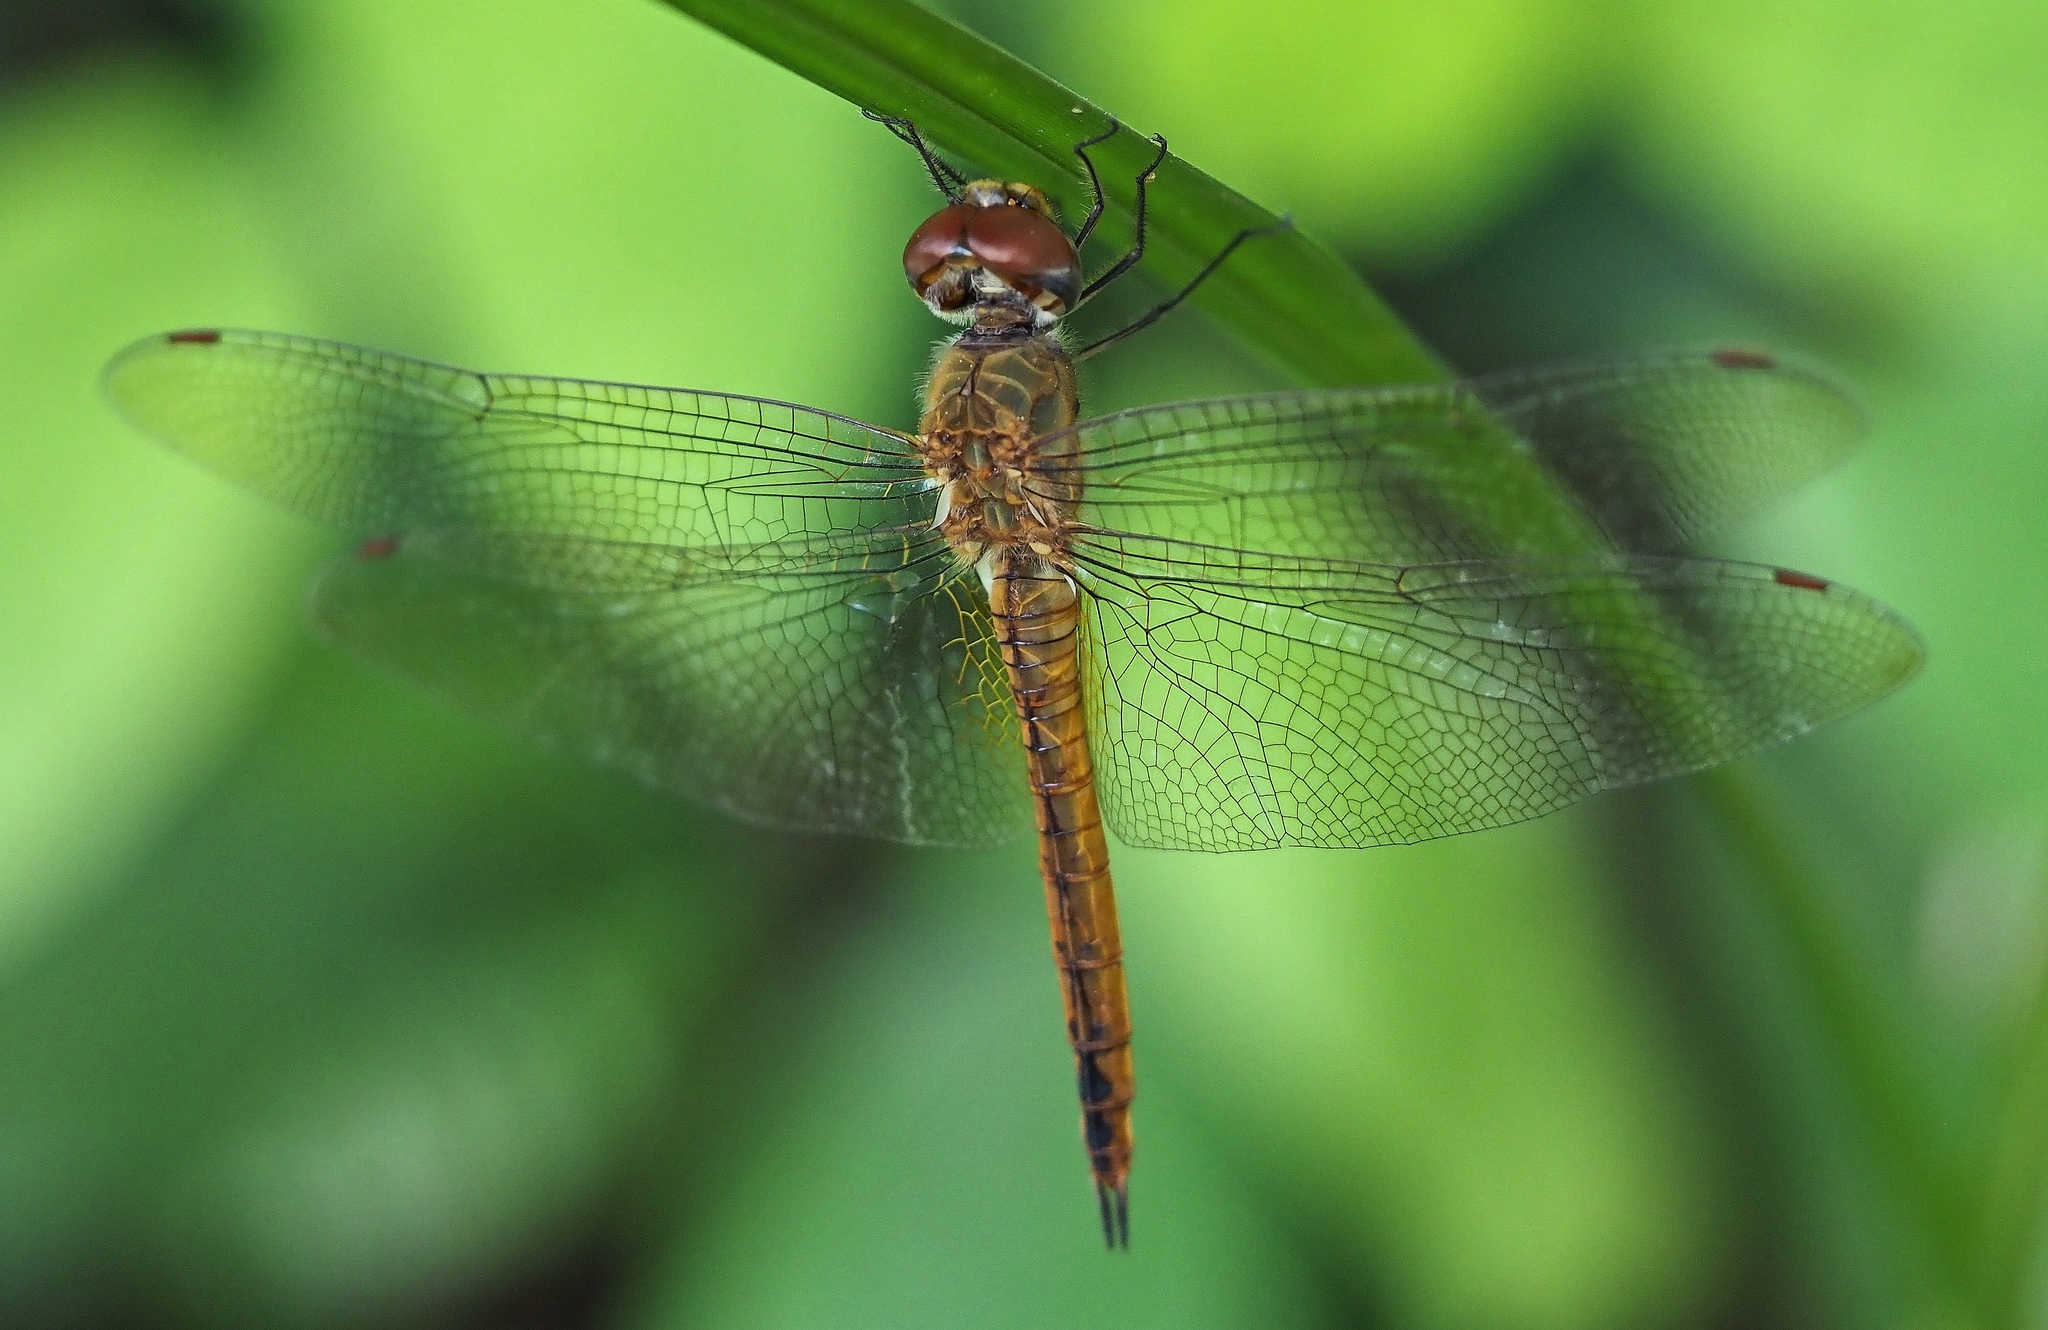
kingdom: Animalia
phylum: Arthropoda
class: Insecta
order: Odonata
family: Libellulidae
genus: Pantala
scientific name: Pantala flavescens
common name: Wandering glider
